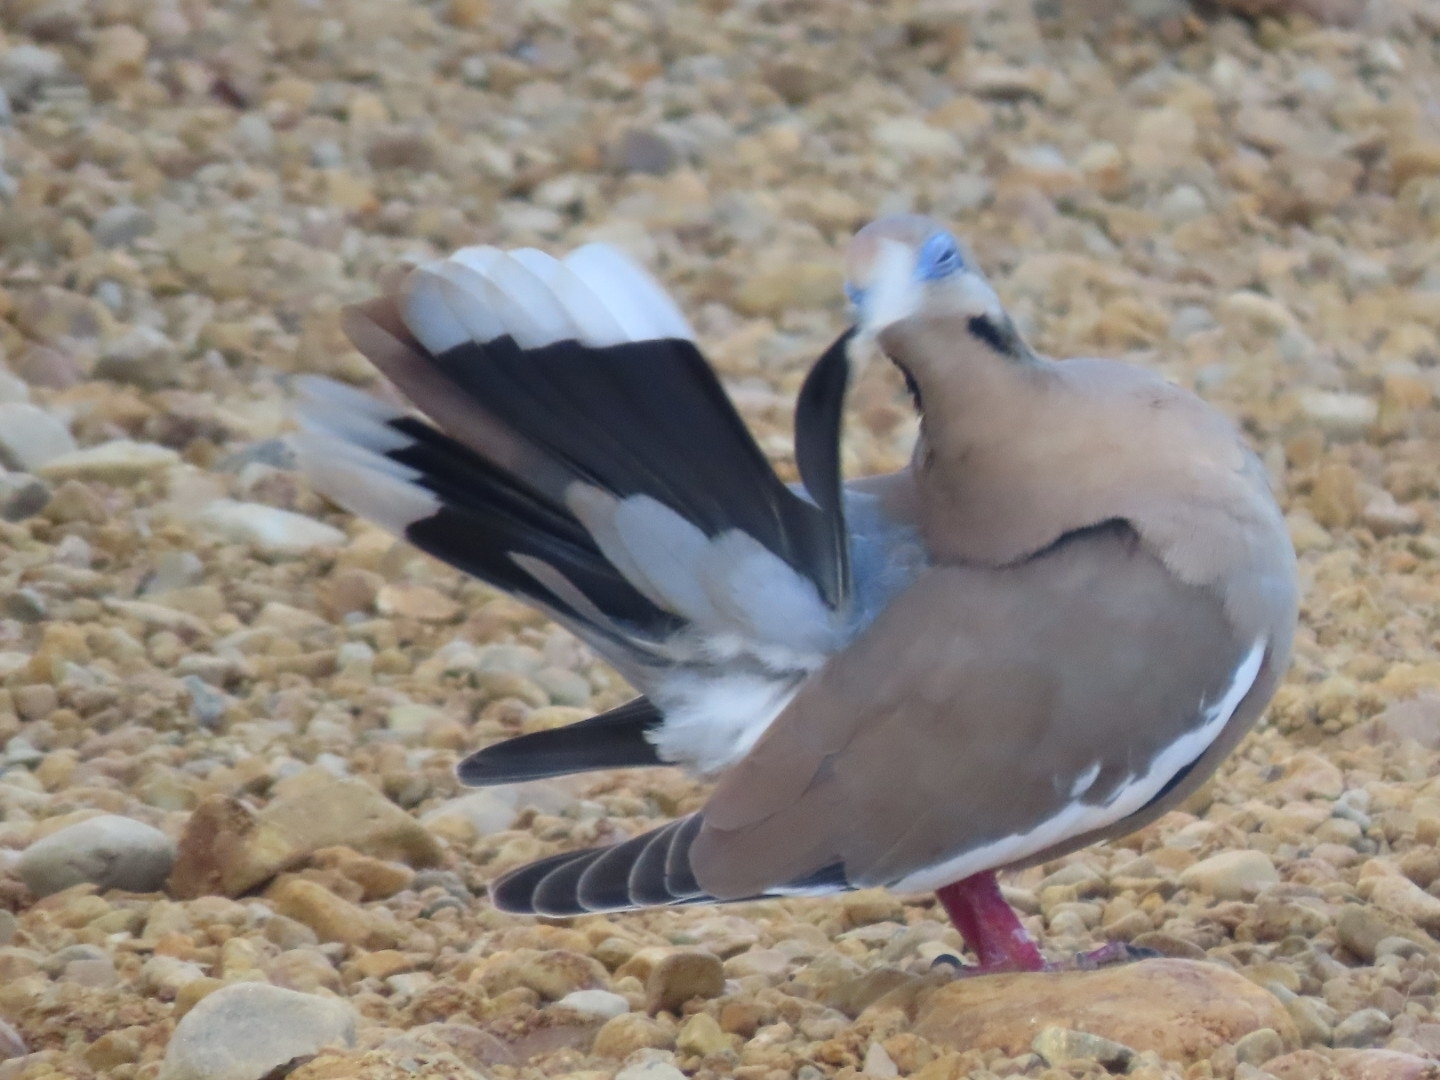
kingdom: Animalia
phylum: Chordata
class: Aves
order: Columbiformes
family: Columbidae
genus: Zenaida
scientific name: Zenaida asiatica
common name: White-winged dove
